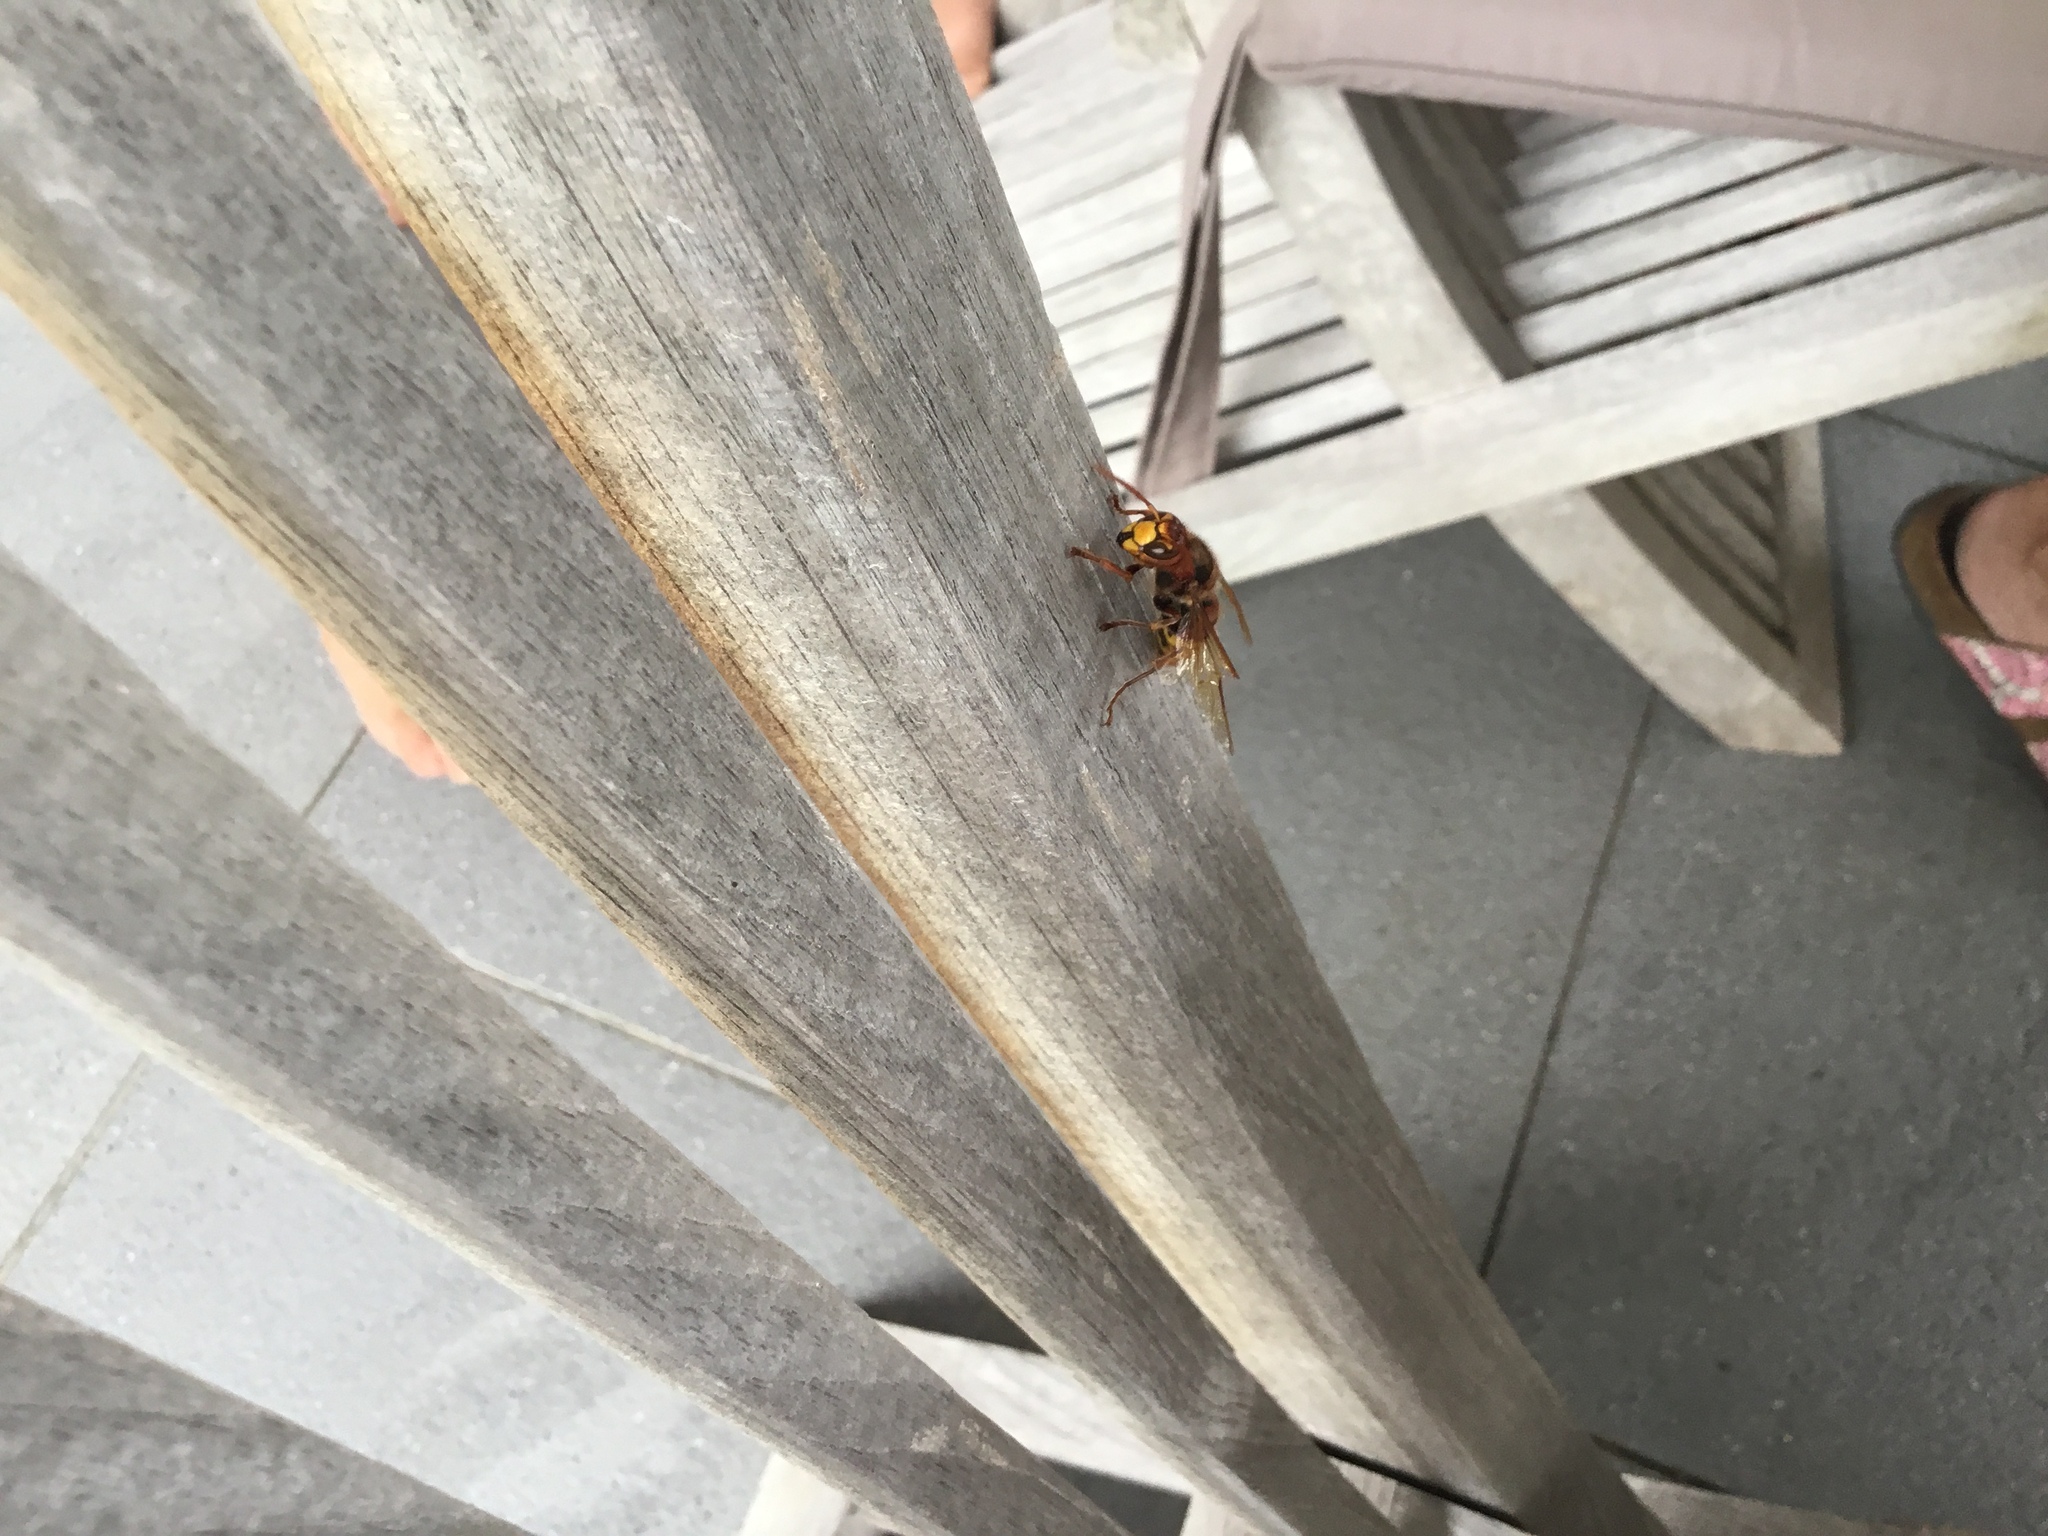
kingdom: Animalia
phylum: Arthropoda
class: Insecta
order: Hymenoptera
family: Vespidae
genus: Vespa
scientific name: Vespa crabro
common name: Hornet
